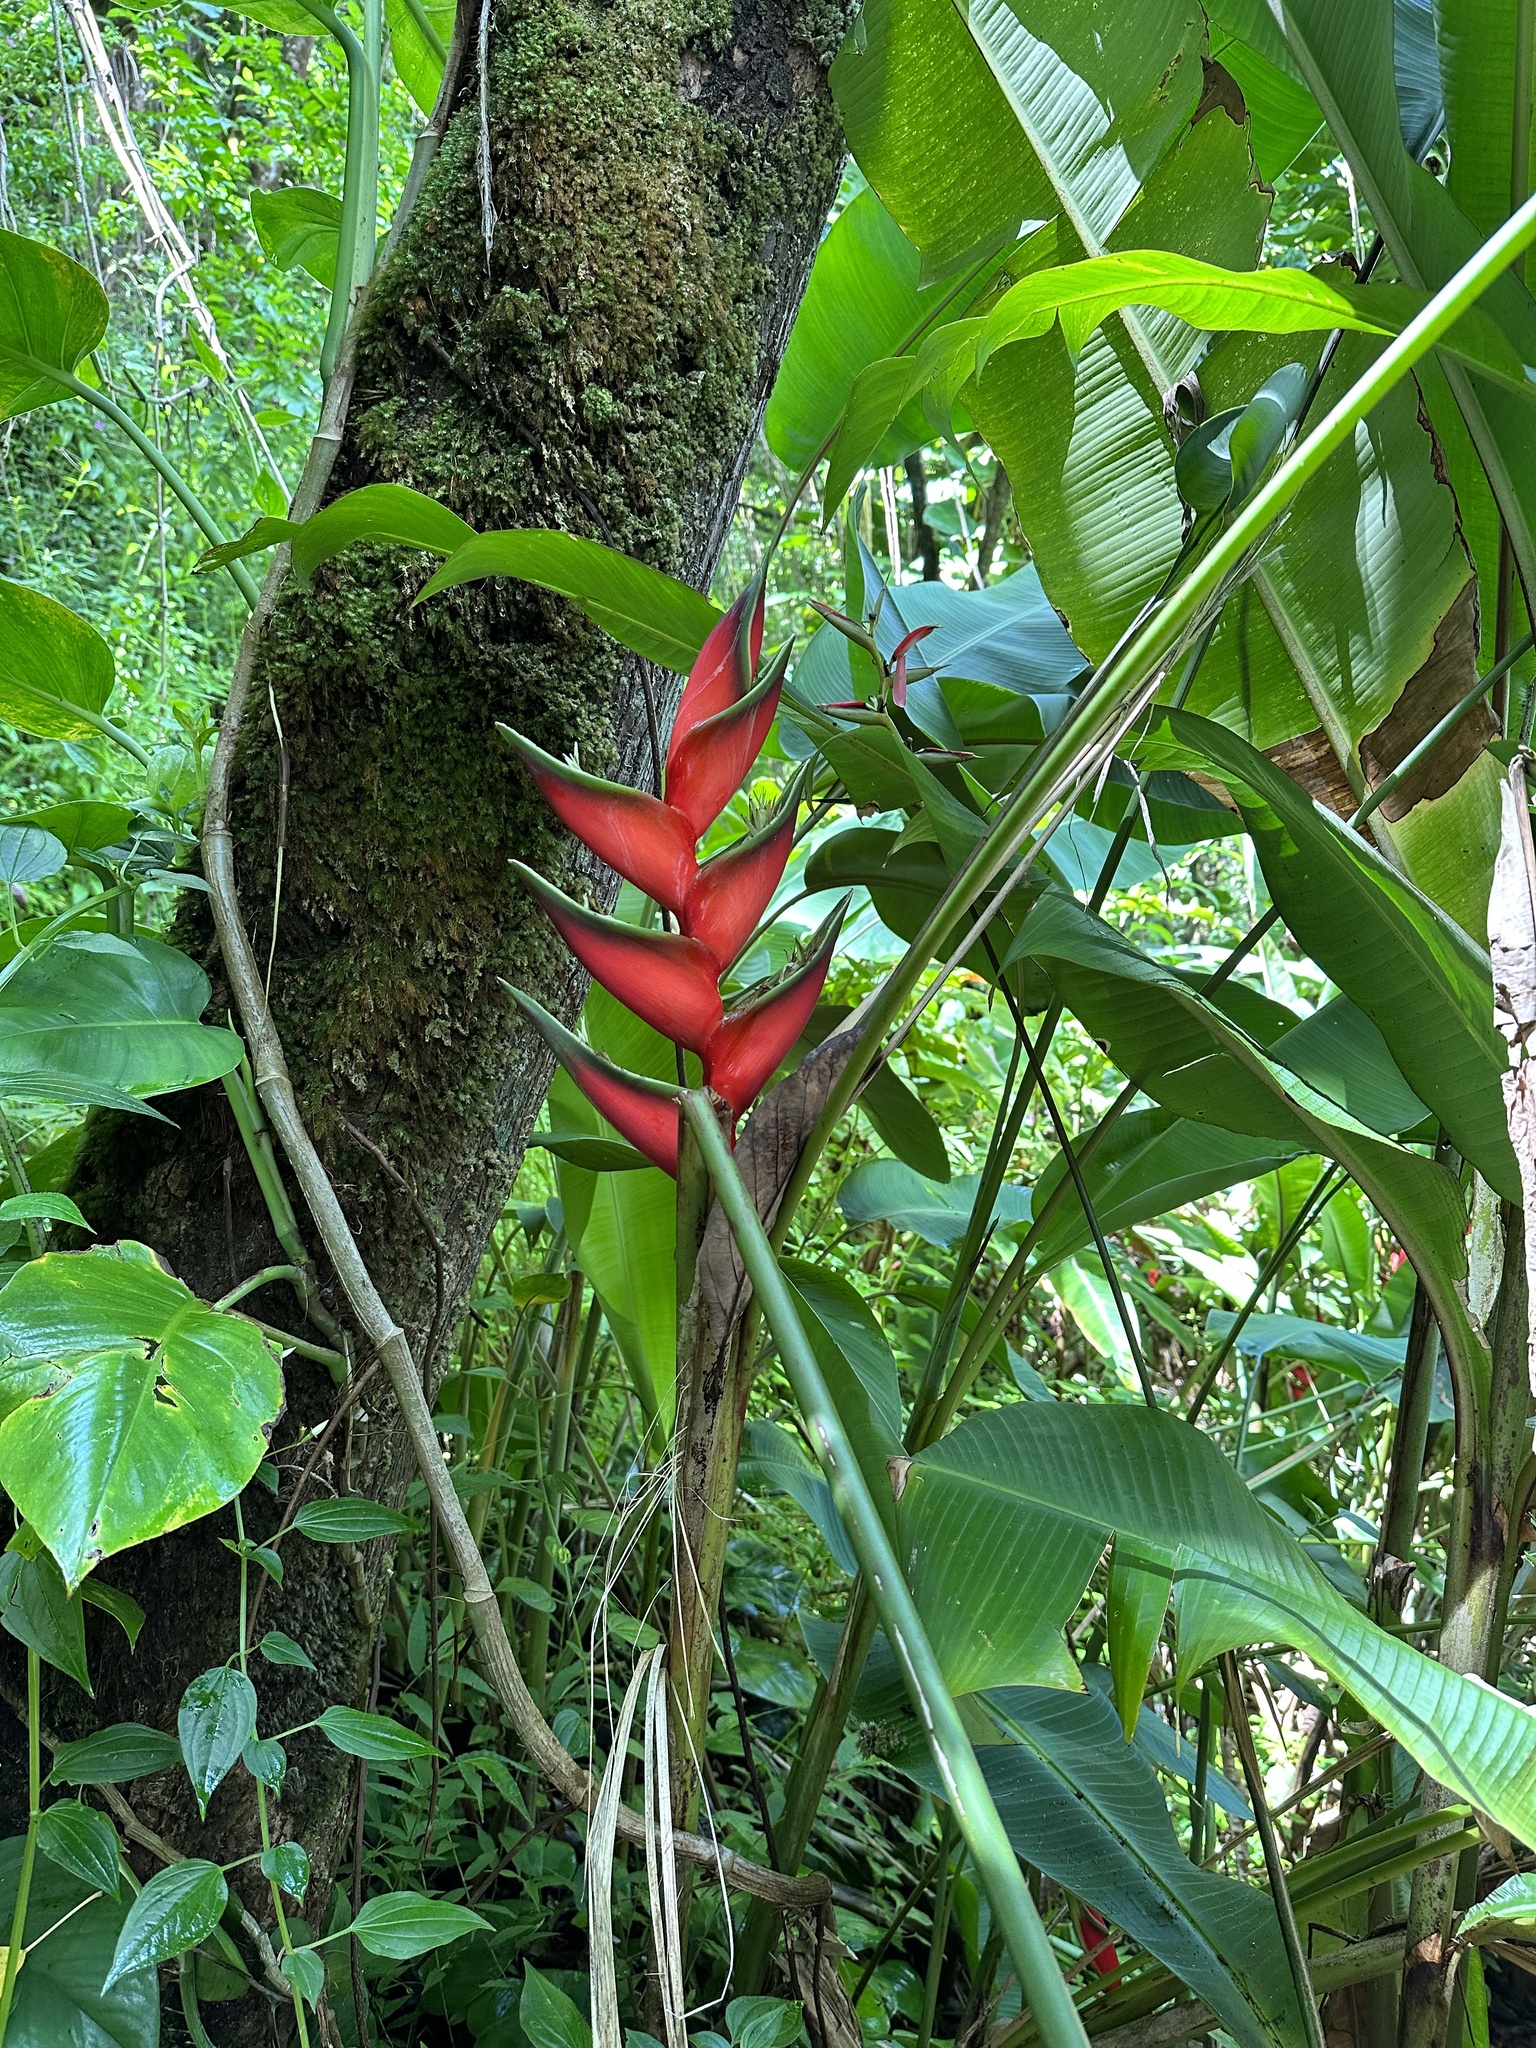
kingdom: Plantae
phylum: Tracheophyta
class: Liliopsida
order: Zingiberales
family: Heliconiaceae
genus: Heliconia
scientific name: Heliconia bihai
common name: Macaw flower
